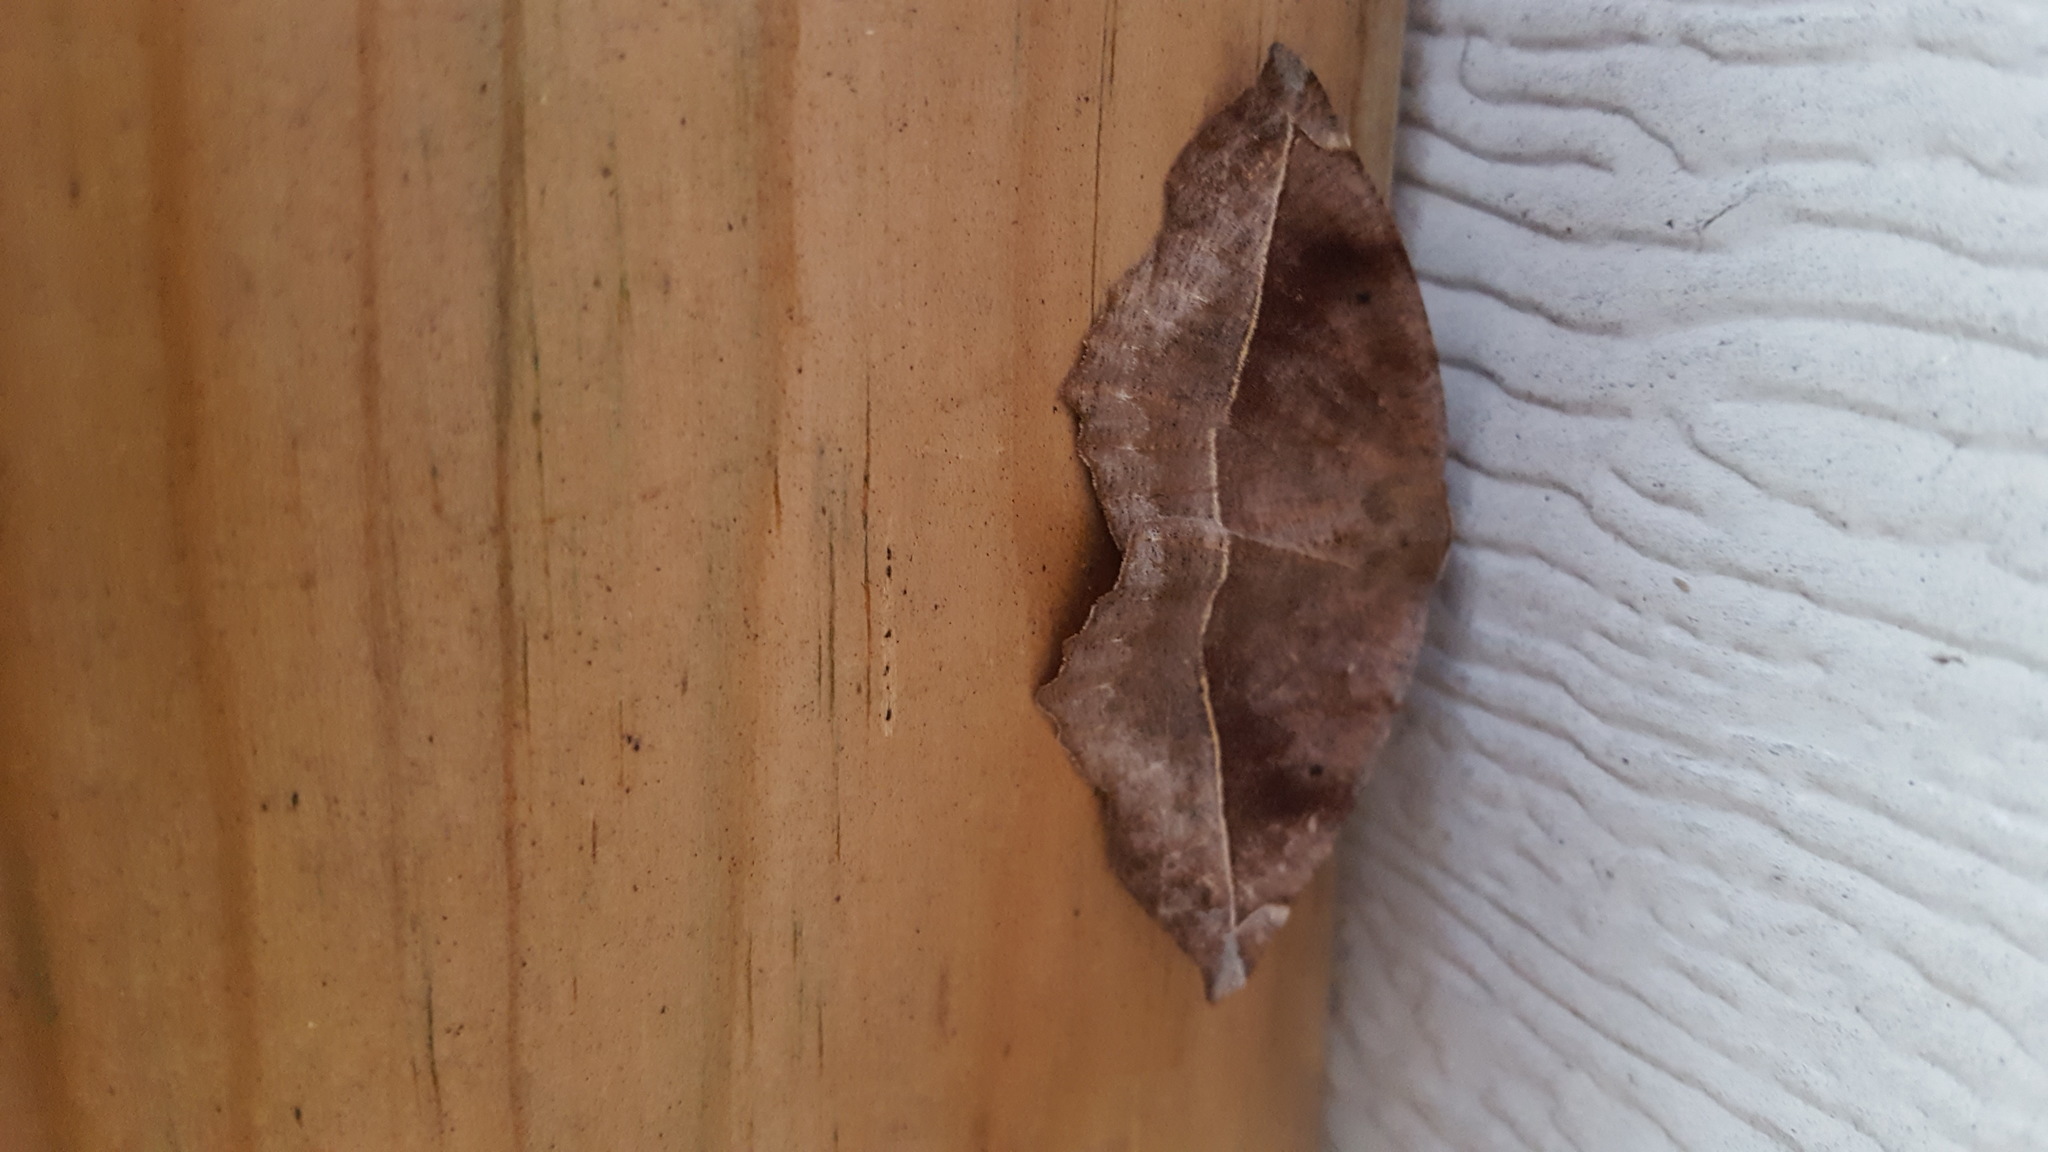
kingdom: Animalia
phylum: Arthropoda
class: Insecta
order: Lepidoptera
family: Geometridae
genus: Eutrapela
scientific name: Eutrapela clemataria
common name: Curved-toothed geometer
